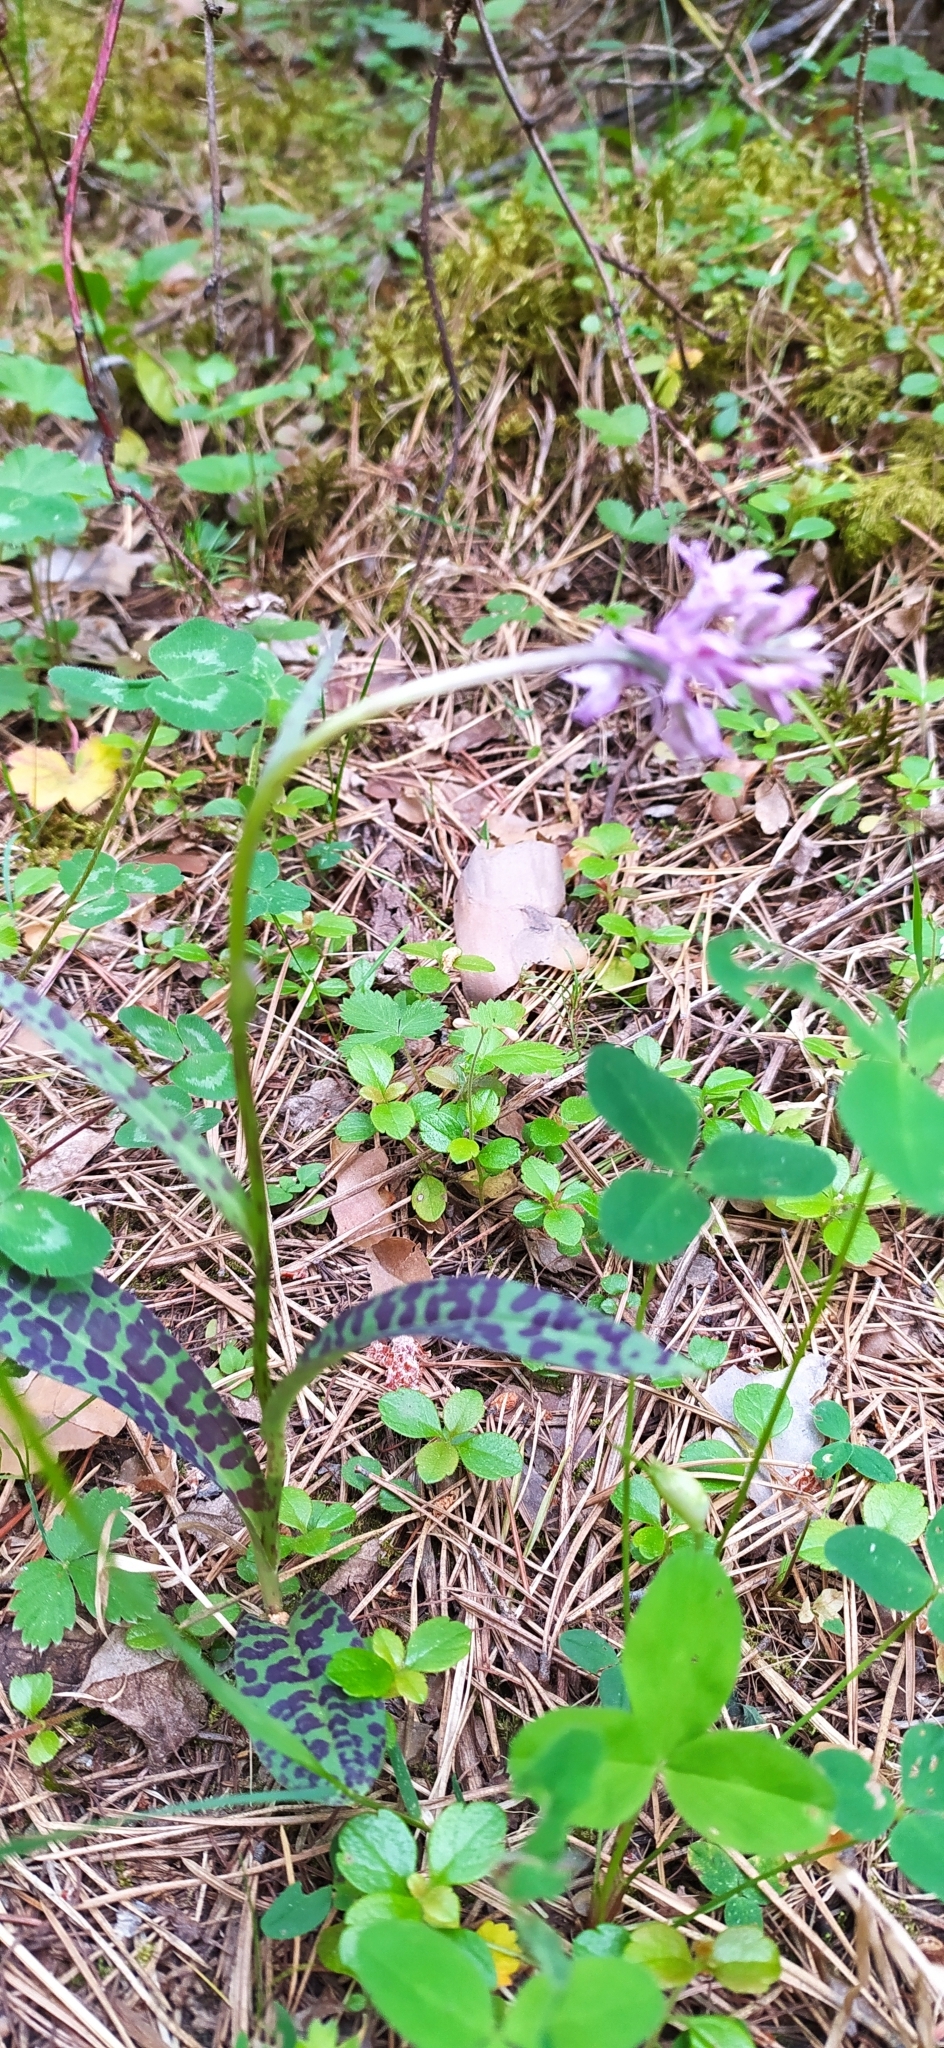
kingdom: Plantae
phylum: Tracheophyta
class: Liliopsida
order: Asparagales
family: Orchidaceae
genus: Dactylorhiza
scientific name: Dactylorhiza maculata
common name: Heath spotted-orchid
